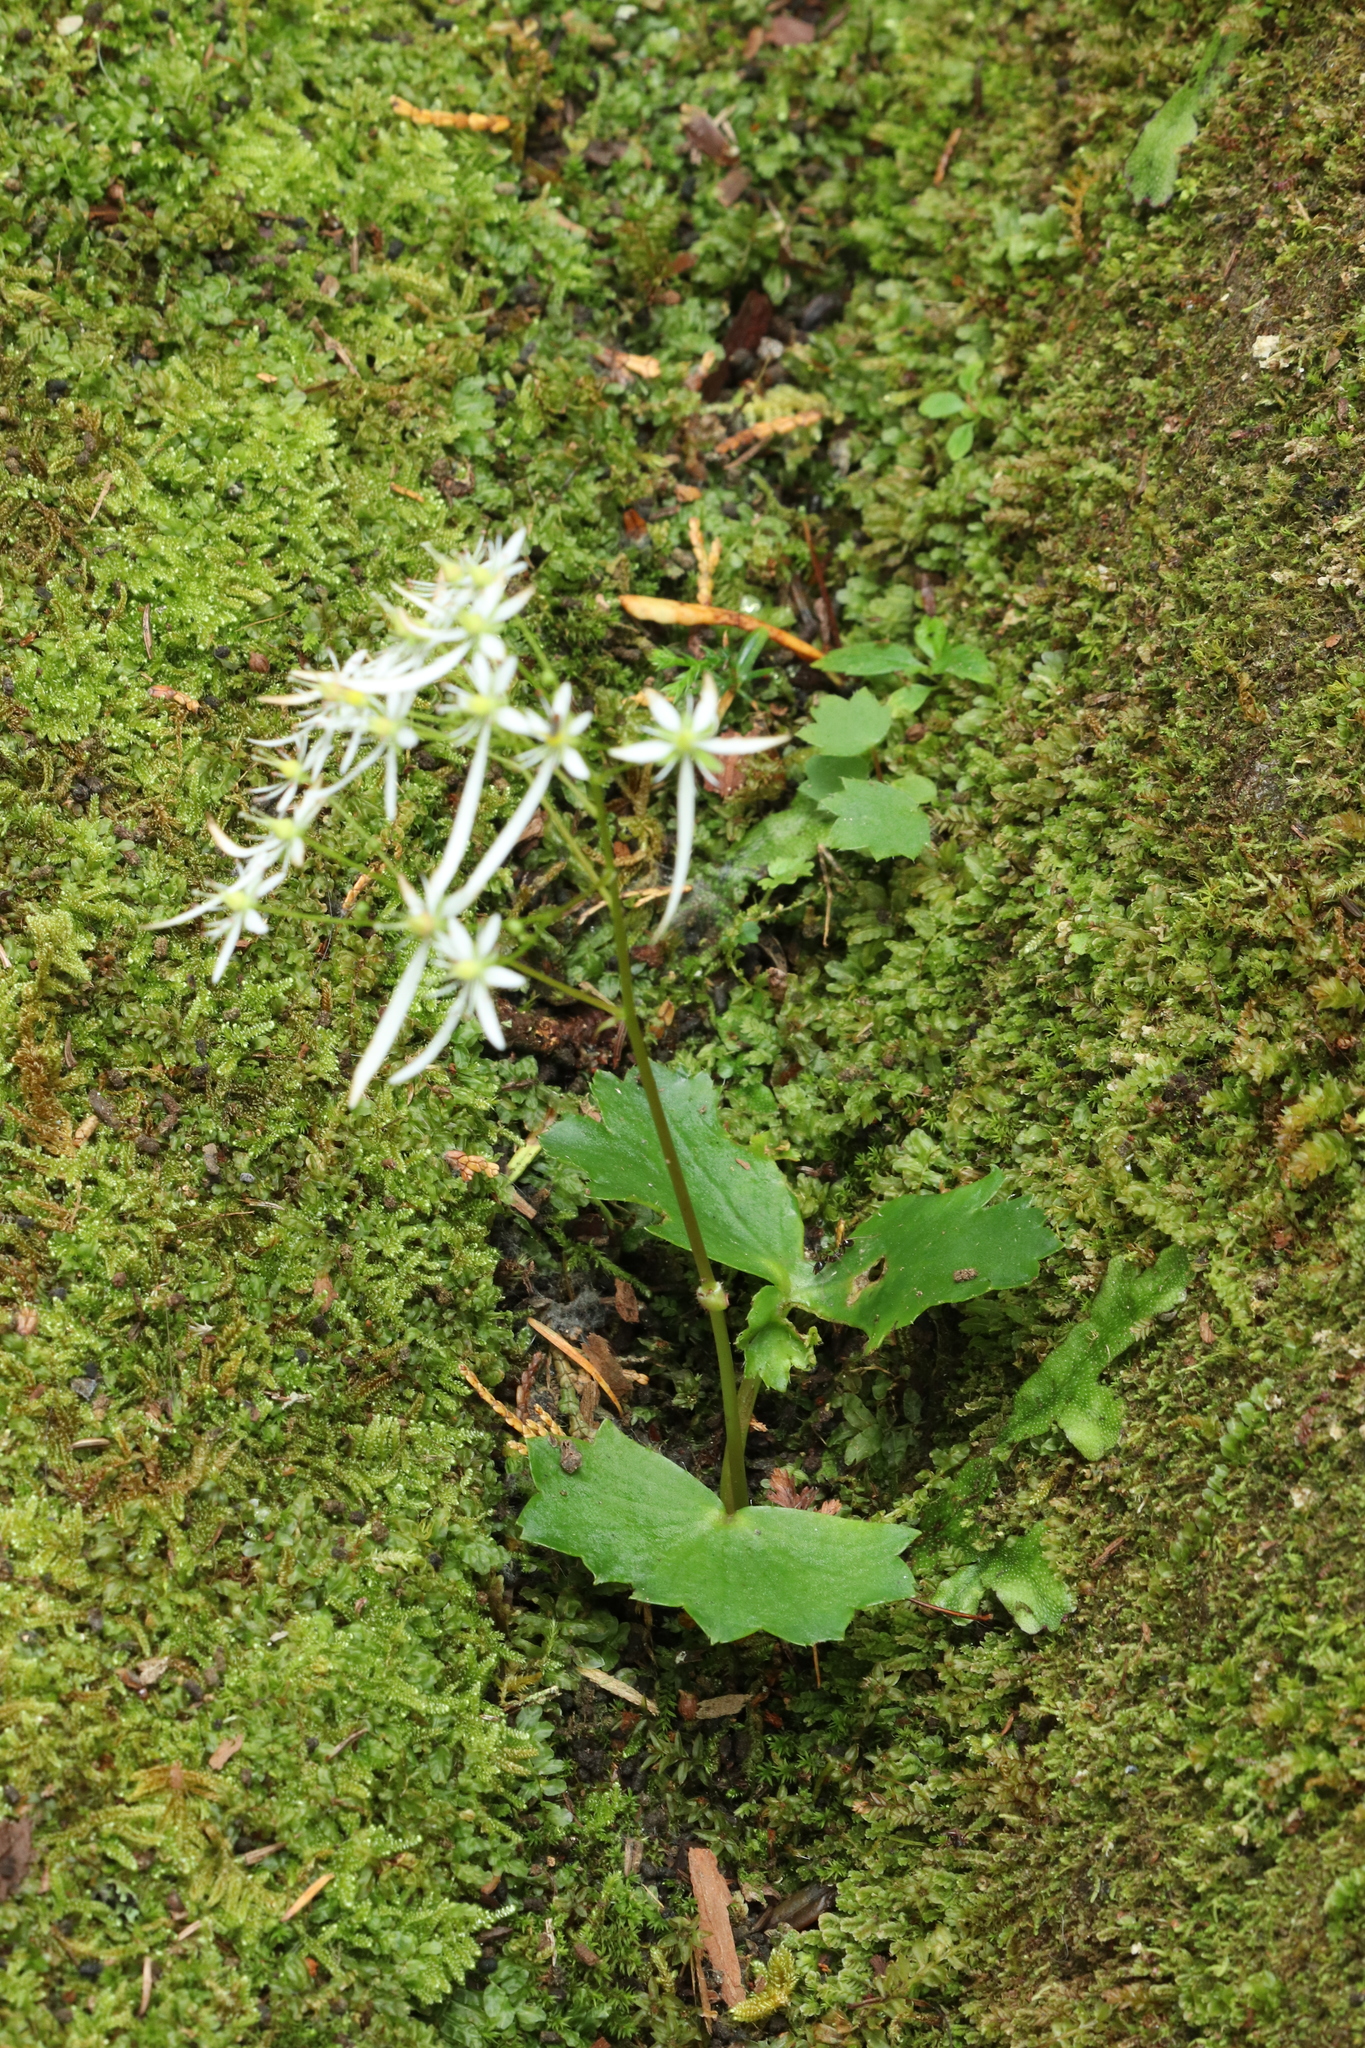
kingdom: Plantae
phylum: Tracheophyta
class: Magnoliopsida
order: Saxifragales
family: Saxifragaceae
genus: Saxifraga
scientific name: Saxifraga fortunei
